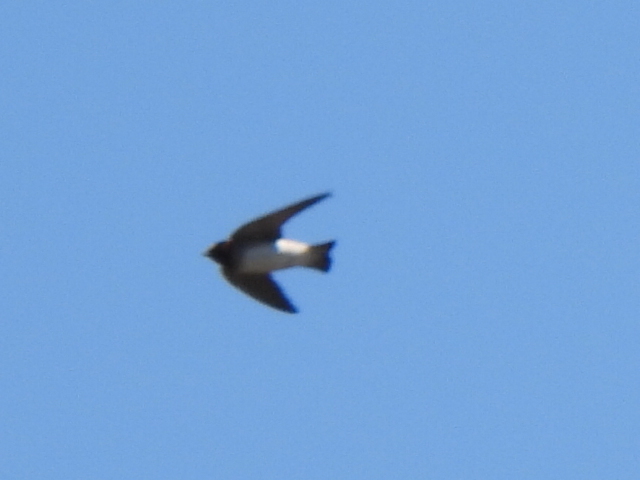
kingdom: Animalia
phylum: Chordata
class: Aves
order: Passeriformes
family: Hirundinidae
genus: Petrochelidon
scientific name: Petrochelidon pyrrhonota
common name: American cliff swallow
